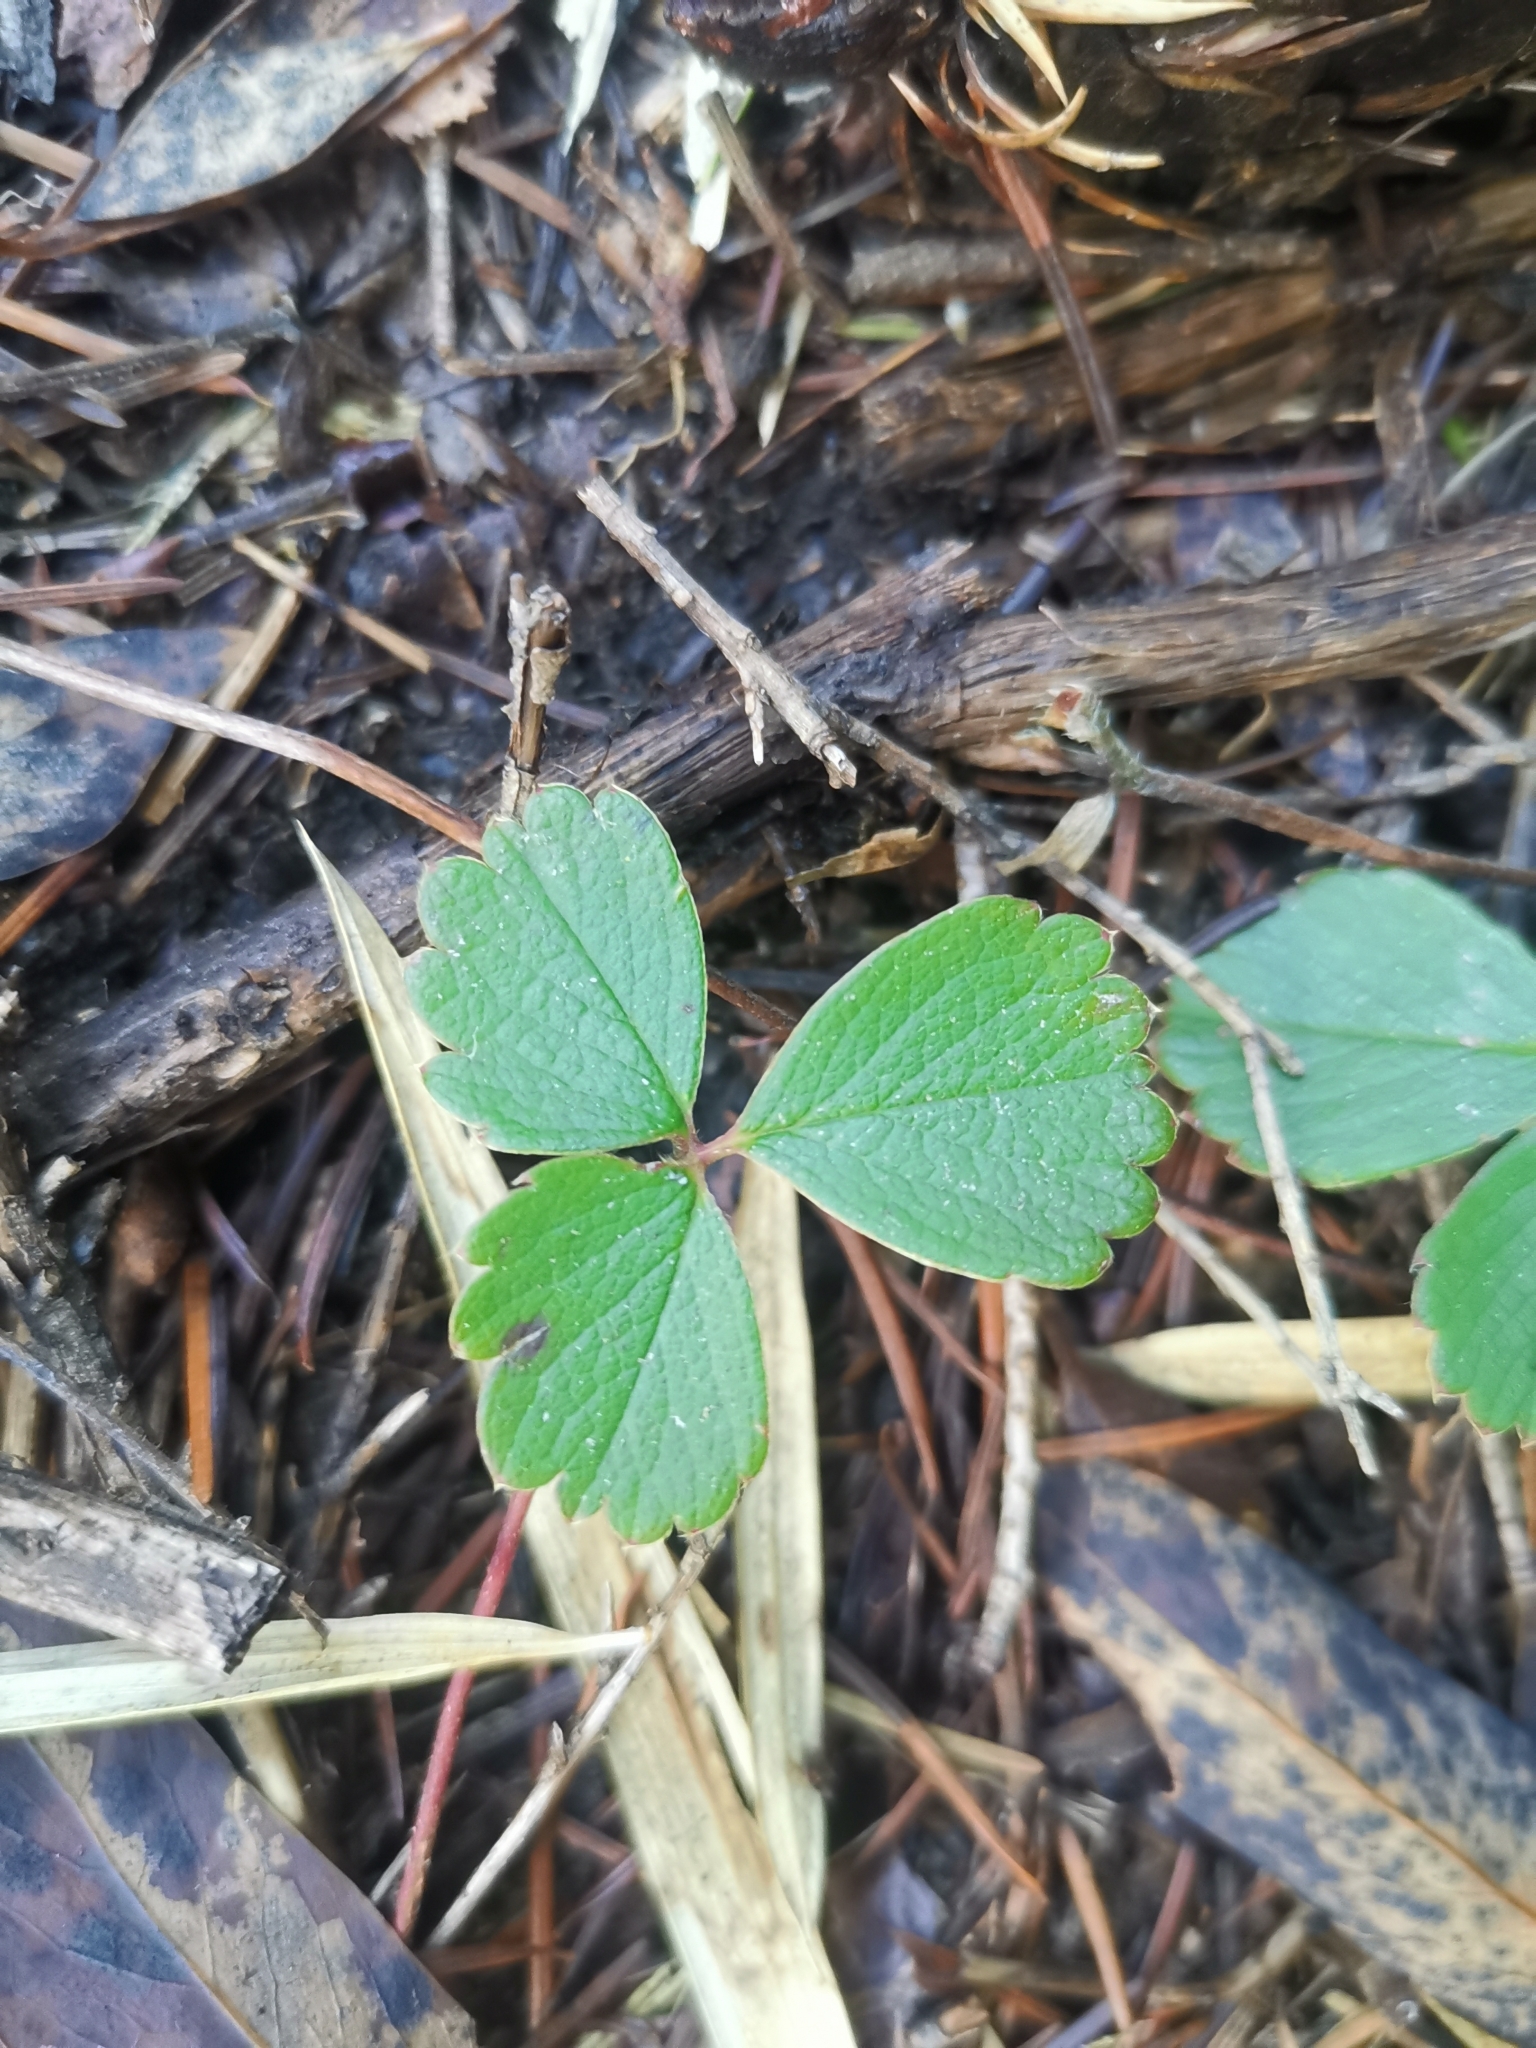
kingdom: Plantae
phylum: Tracheophyta
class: Magnoliopsida
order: Rosales
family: Rosaceae
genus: Fragaria
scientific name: Fragaria chiloensis
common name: Beach strawberry
